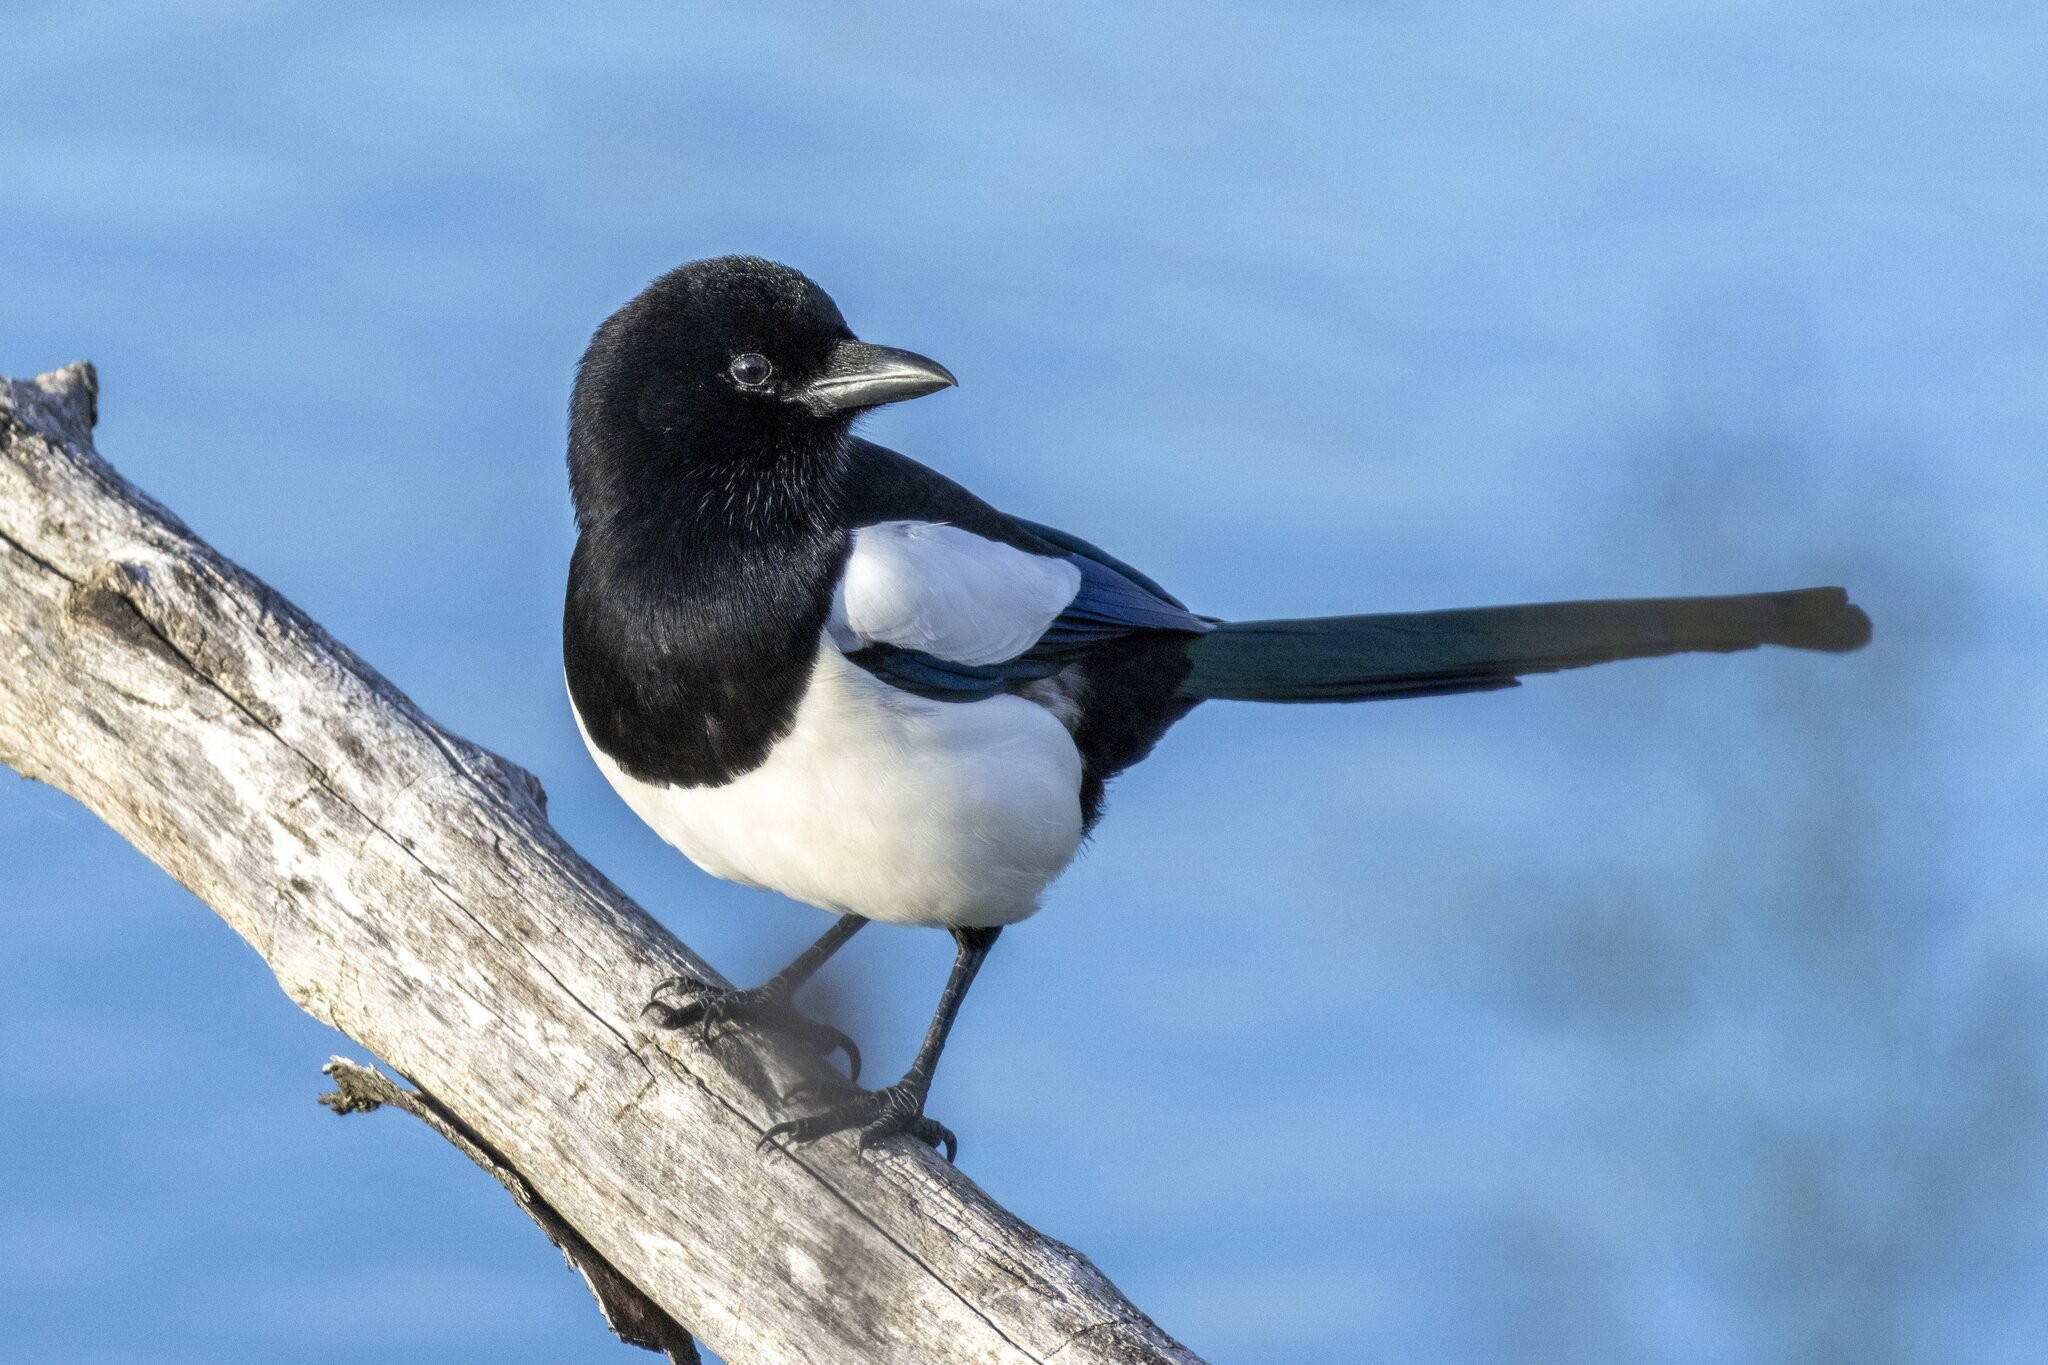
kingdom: Animalia
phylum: Chordata
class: Aves
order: Passeriformes
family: Corvidae
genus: Pica
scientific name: Pica pica
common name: Eurasian magpie
